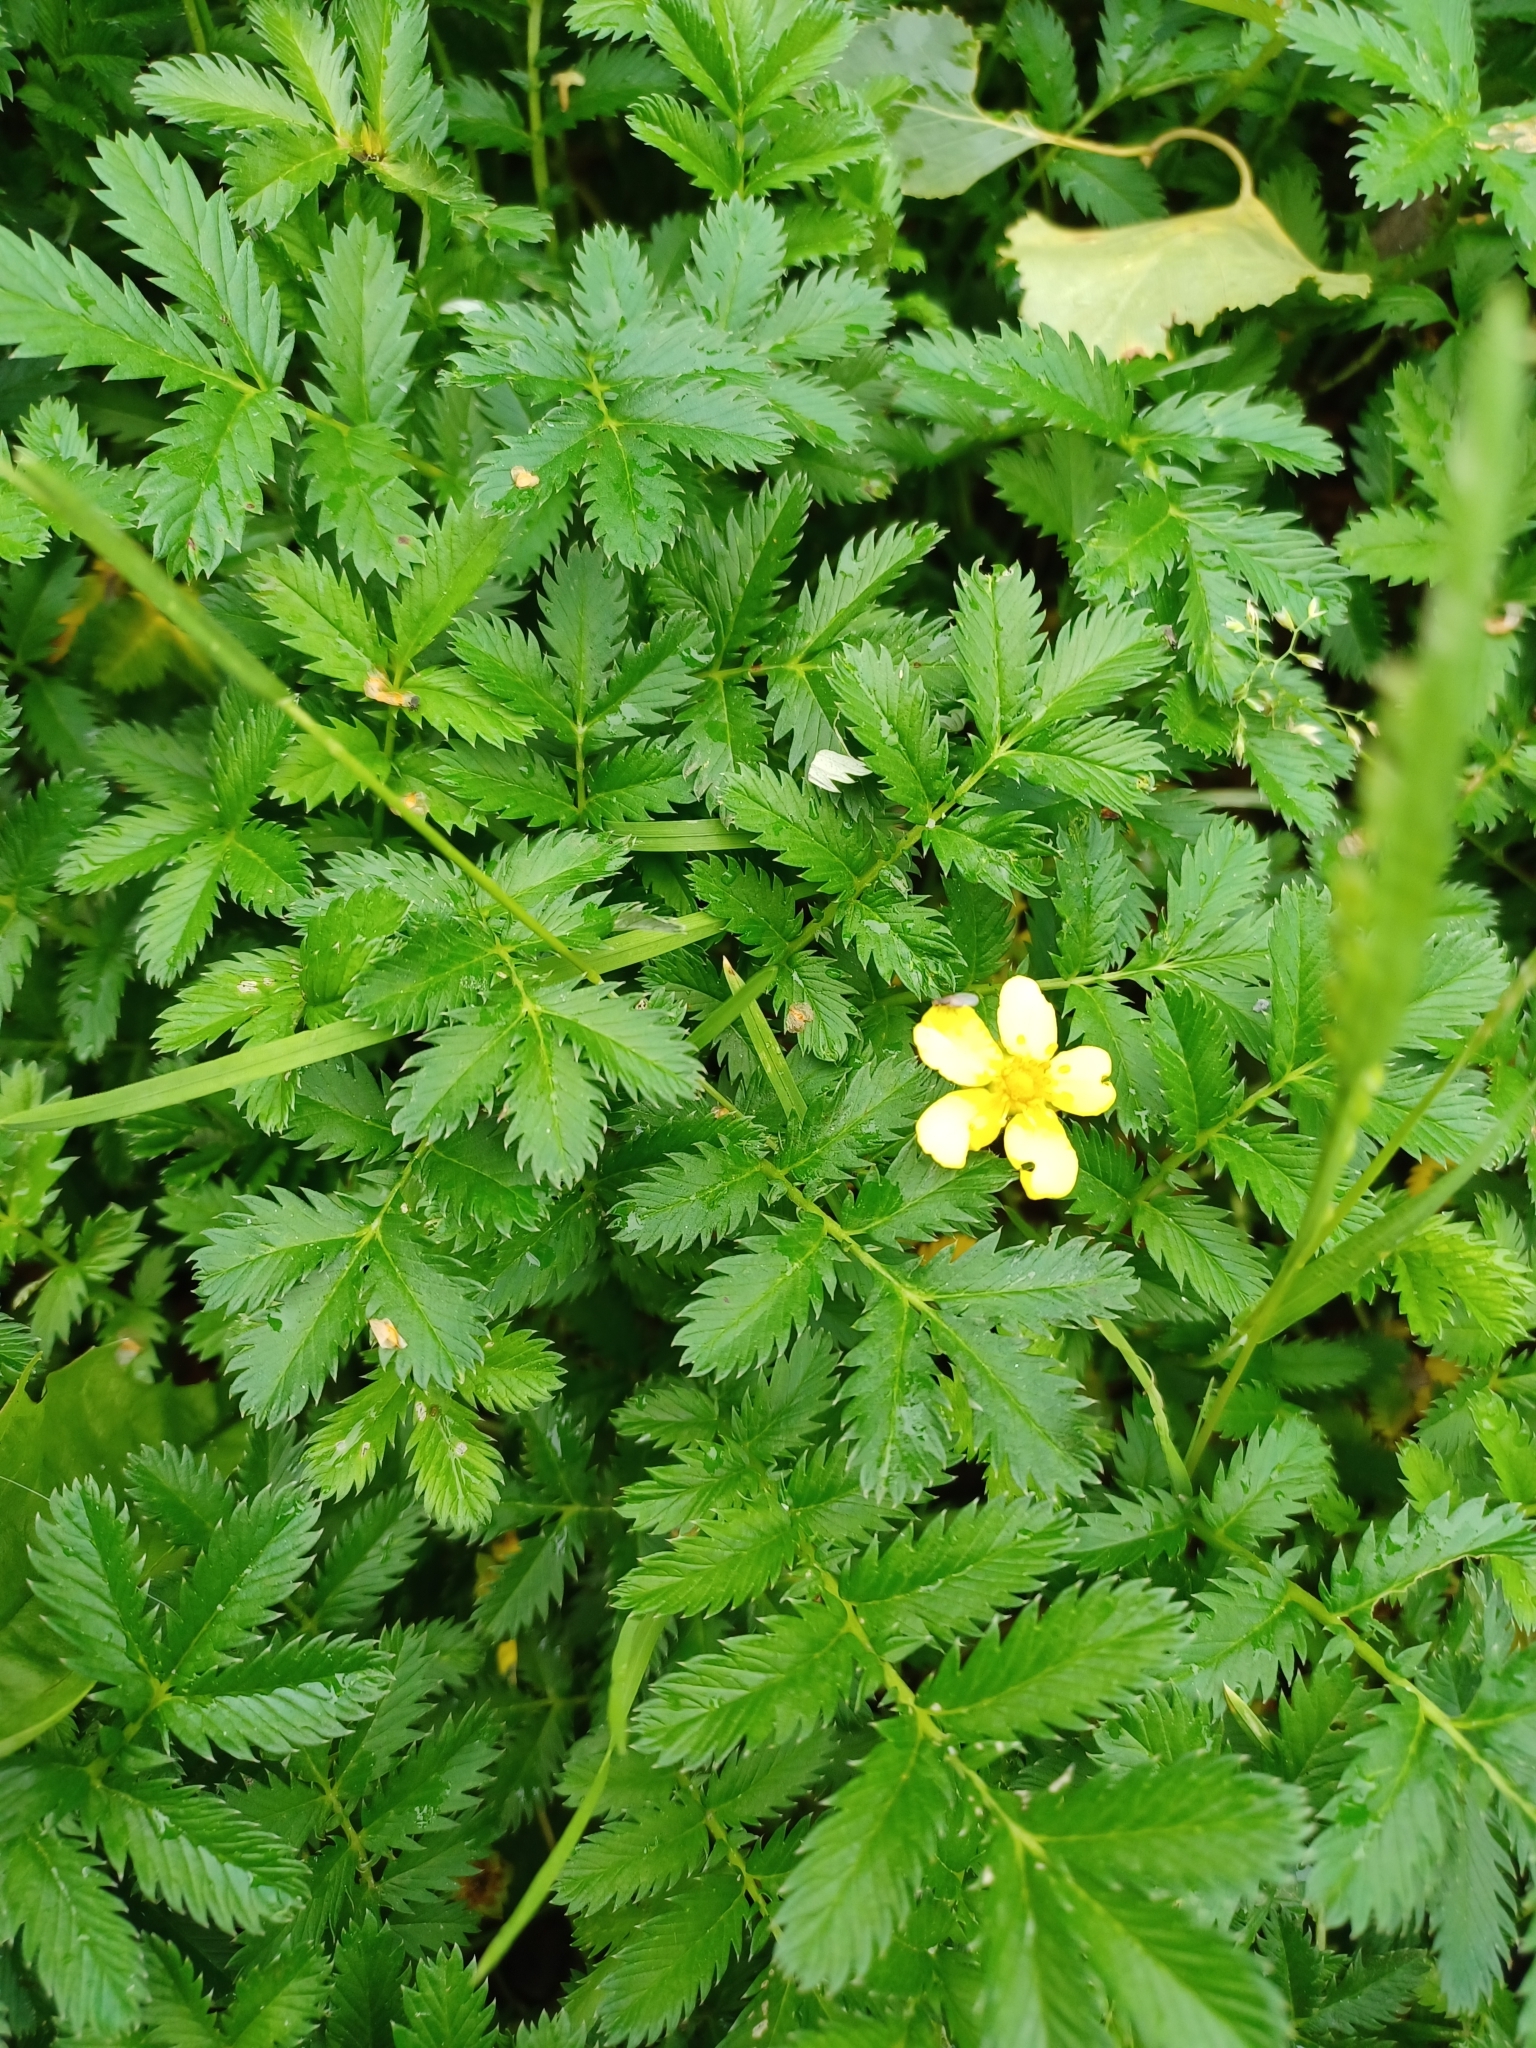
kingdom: Plantae
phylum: Tracheophyta
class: Magnoliopsida
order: Rosales
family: Rosaceae
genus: Argentina
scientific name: Argentina anserina
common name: Common silverweed
